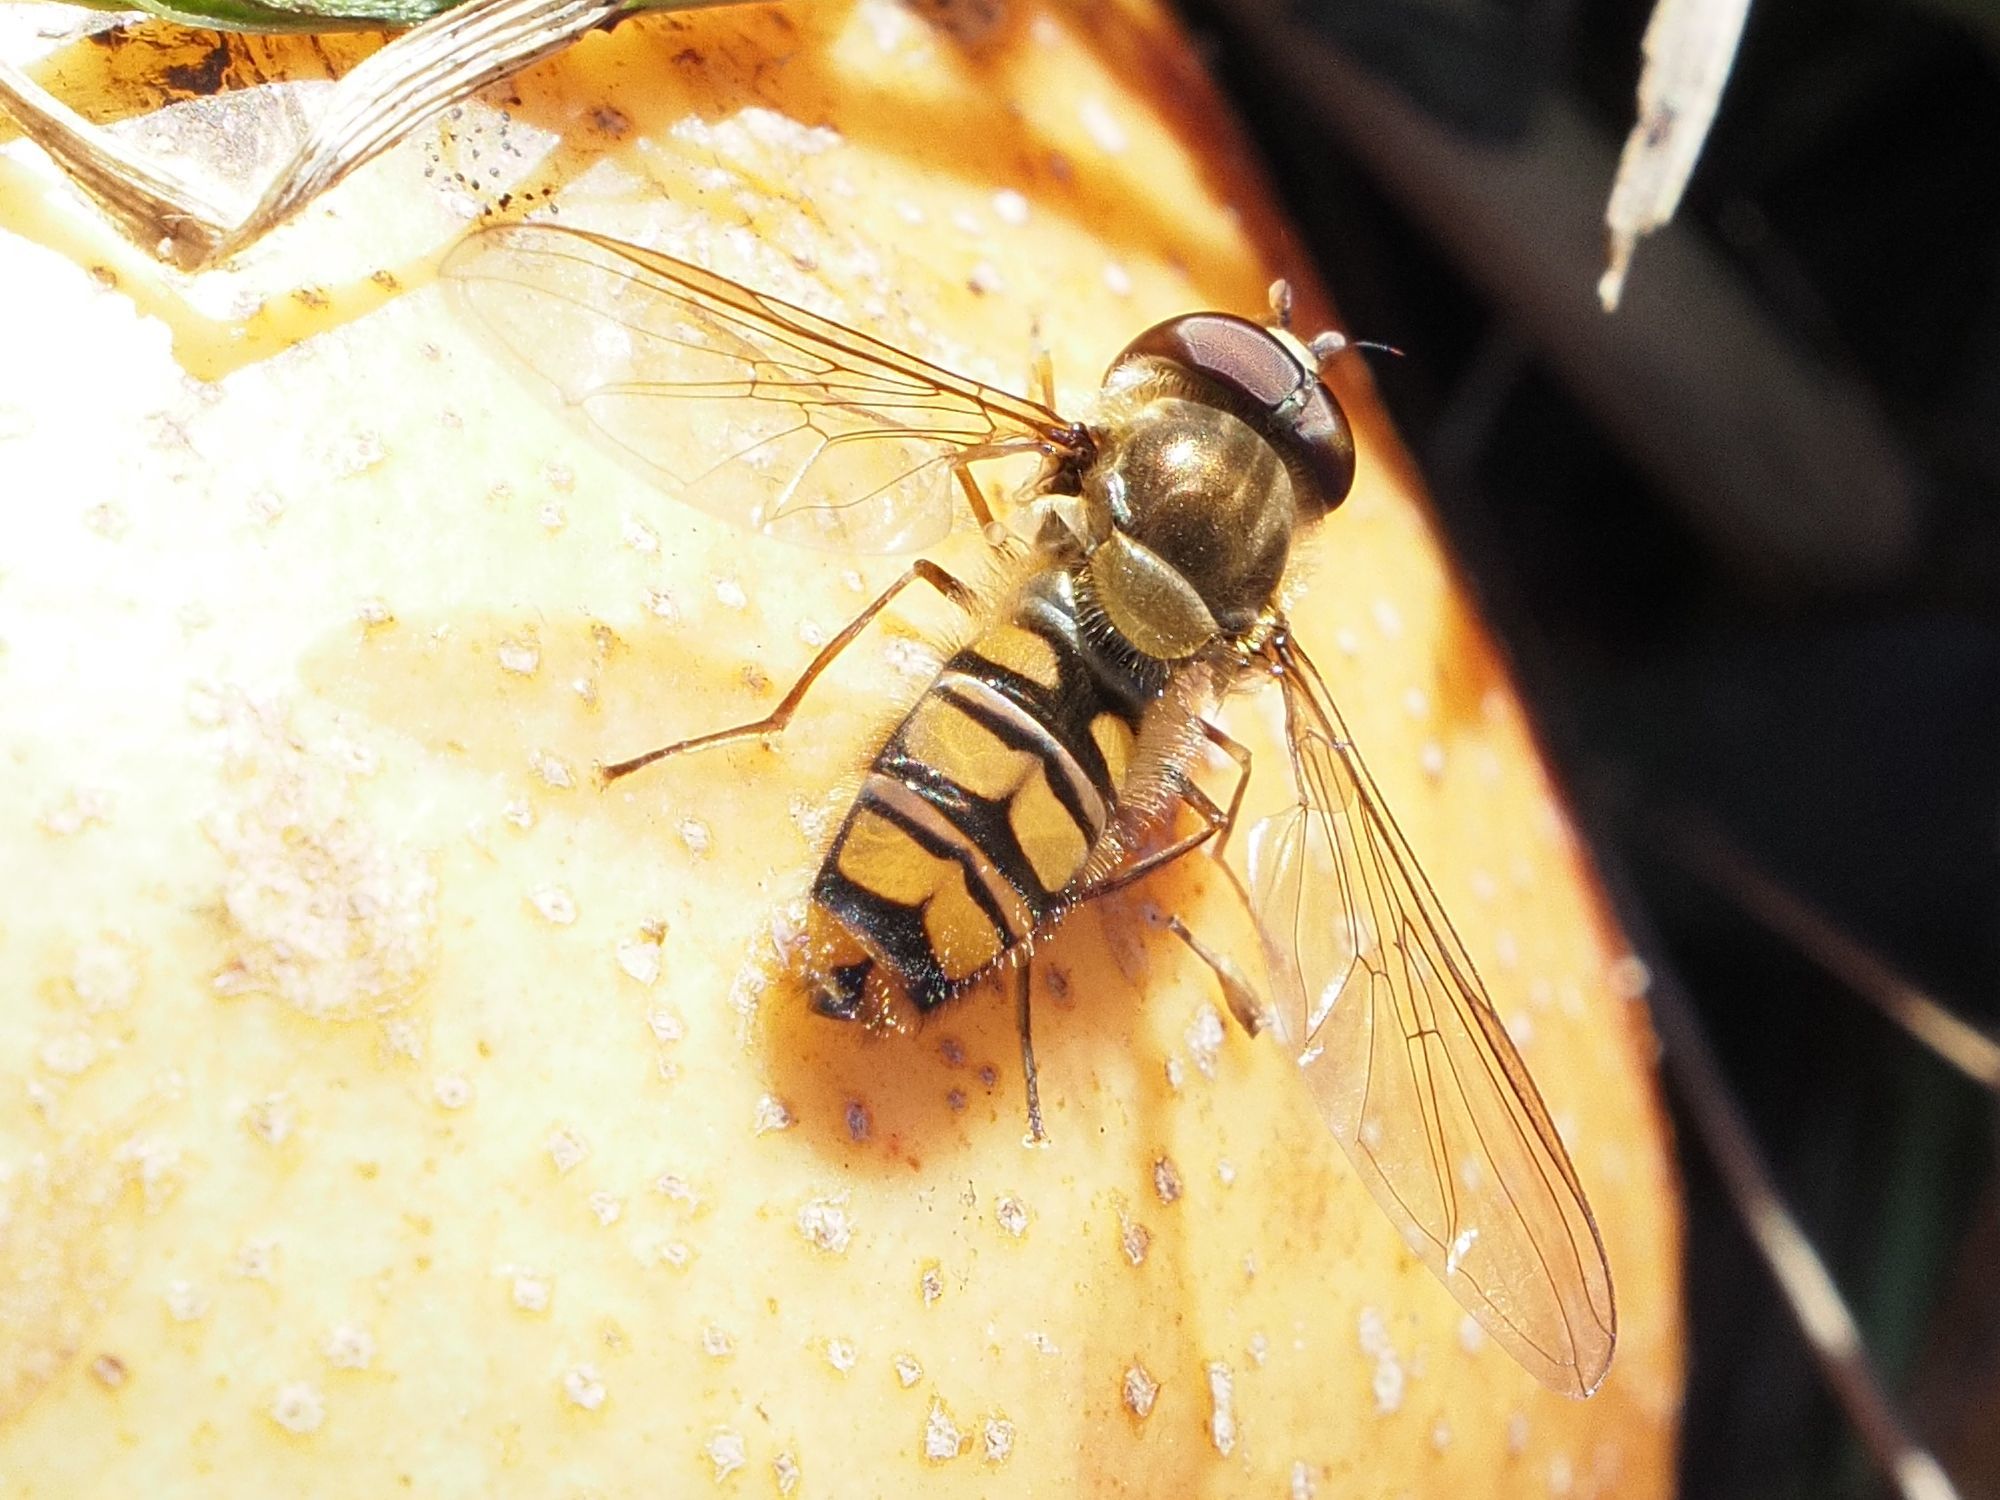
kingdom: Animalia
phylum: Arthropoda
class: Insecta
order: Diptera
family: Syrphidae
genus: Episyrphus
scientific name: Episyrphus balteatus
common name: Marmalade hoverfly
